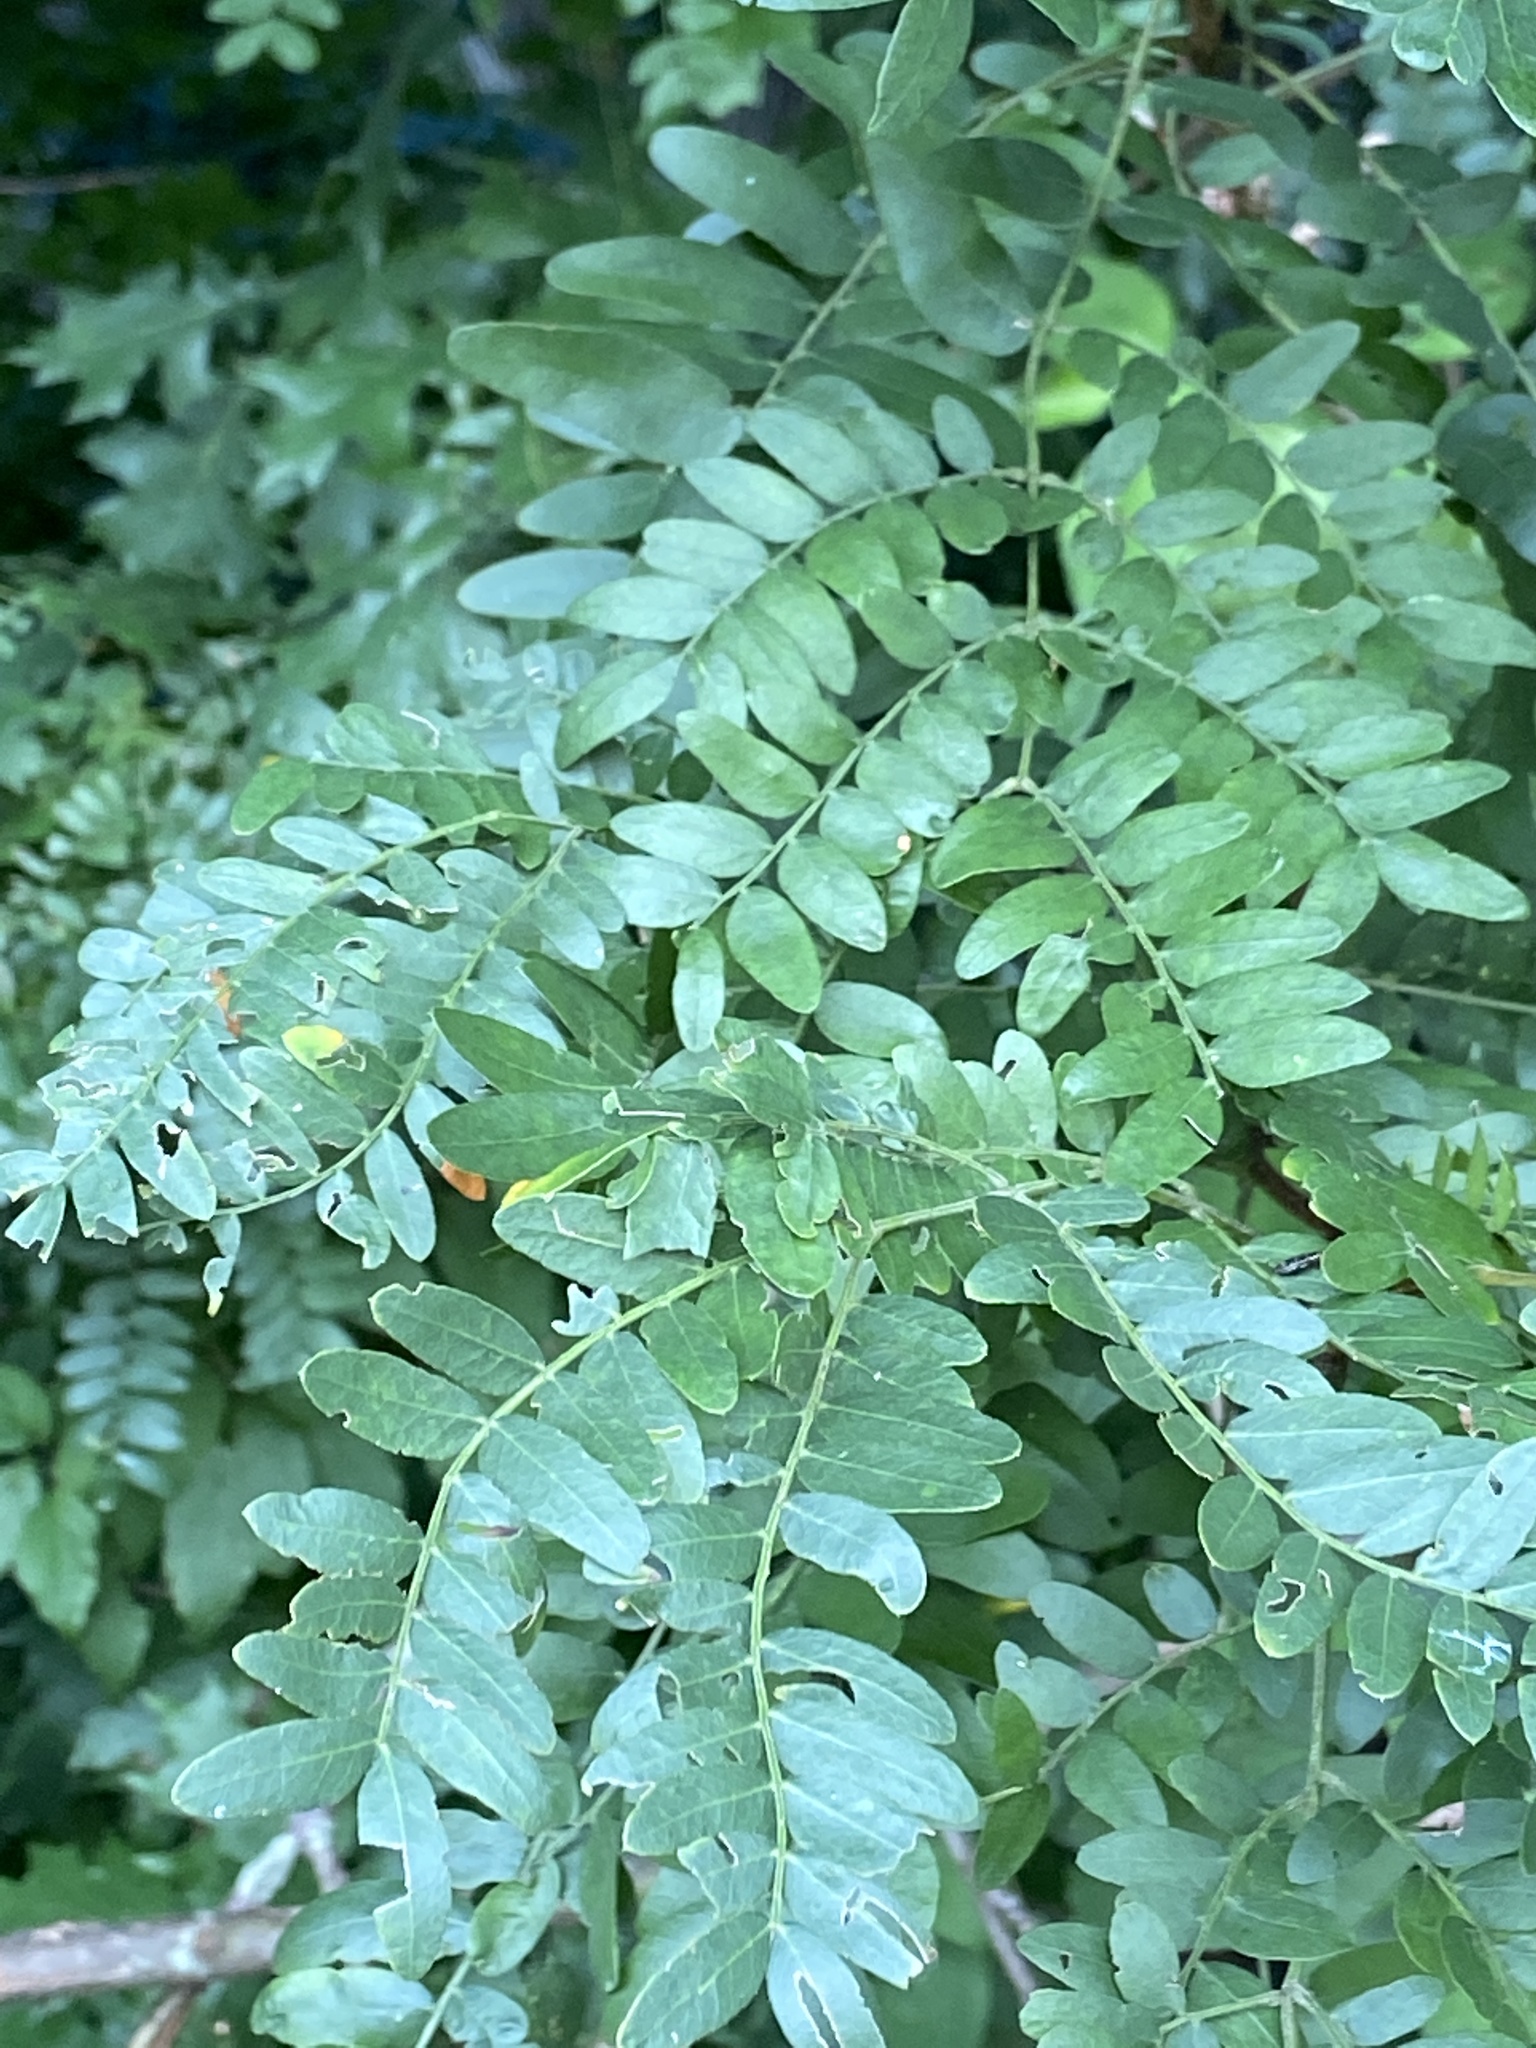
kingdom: Plantae
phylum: Tracheophyta
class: Magnoliopsida
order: Fabales
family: Fabaceae
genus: Gleditsia
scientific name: Gleditsia triacanthos
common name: Common honeylocust
